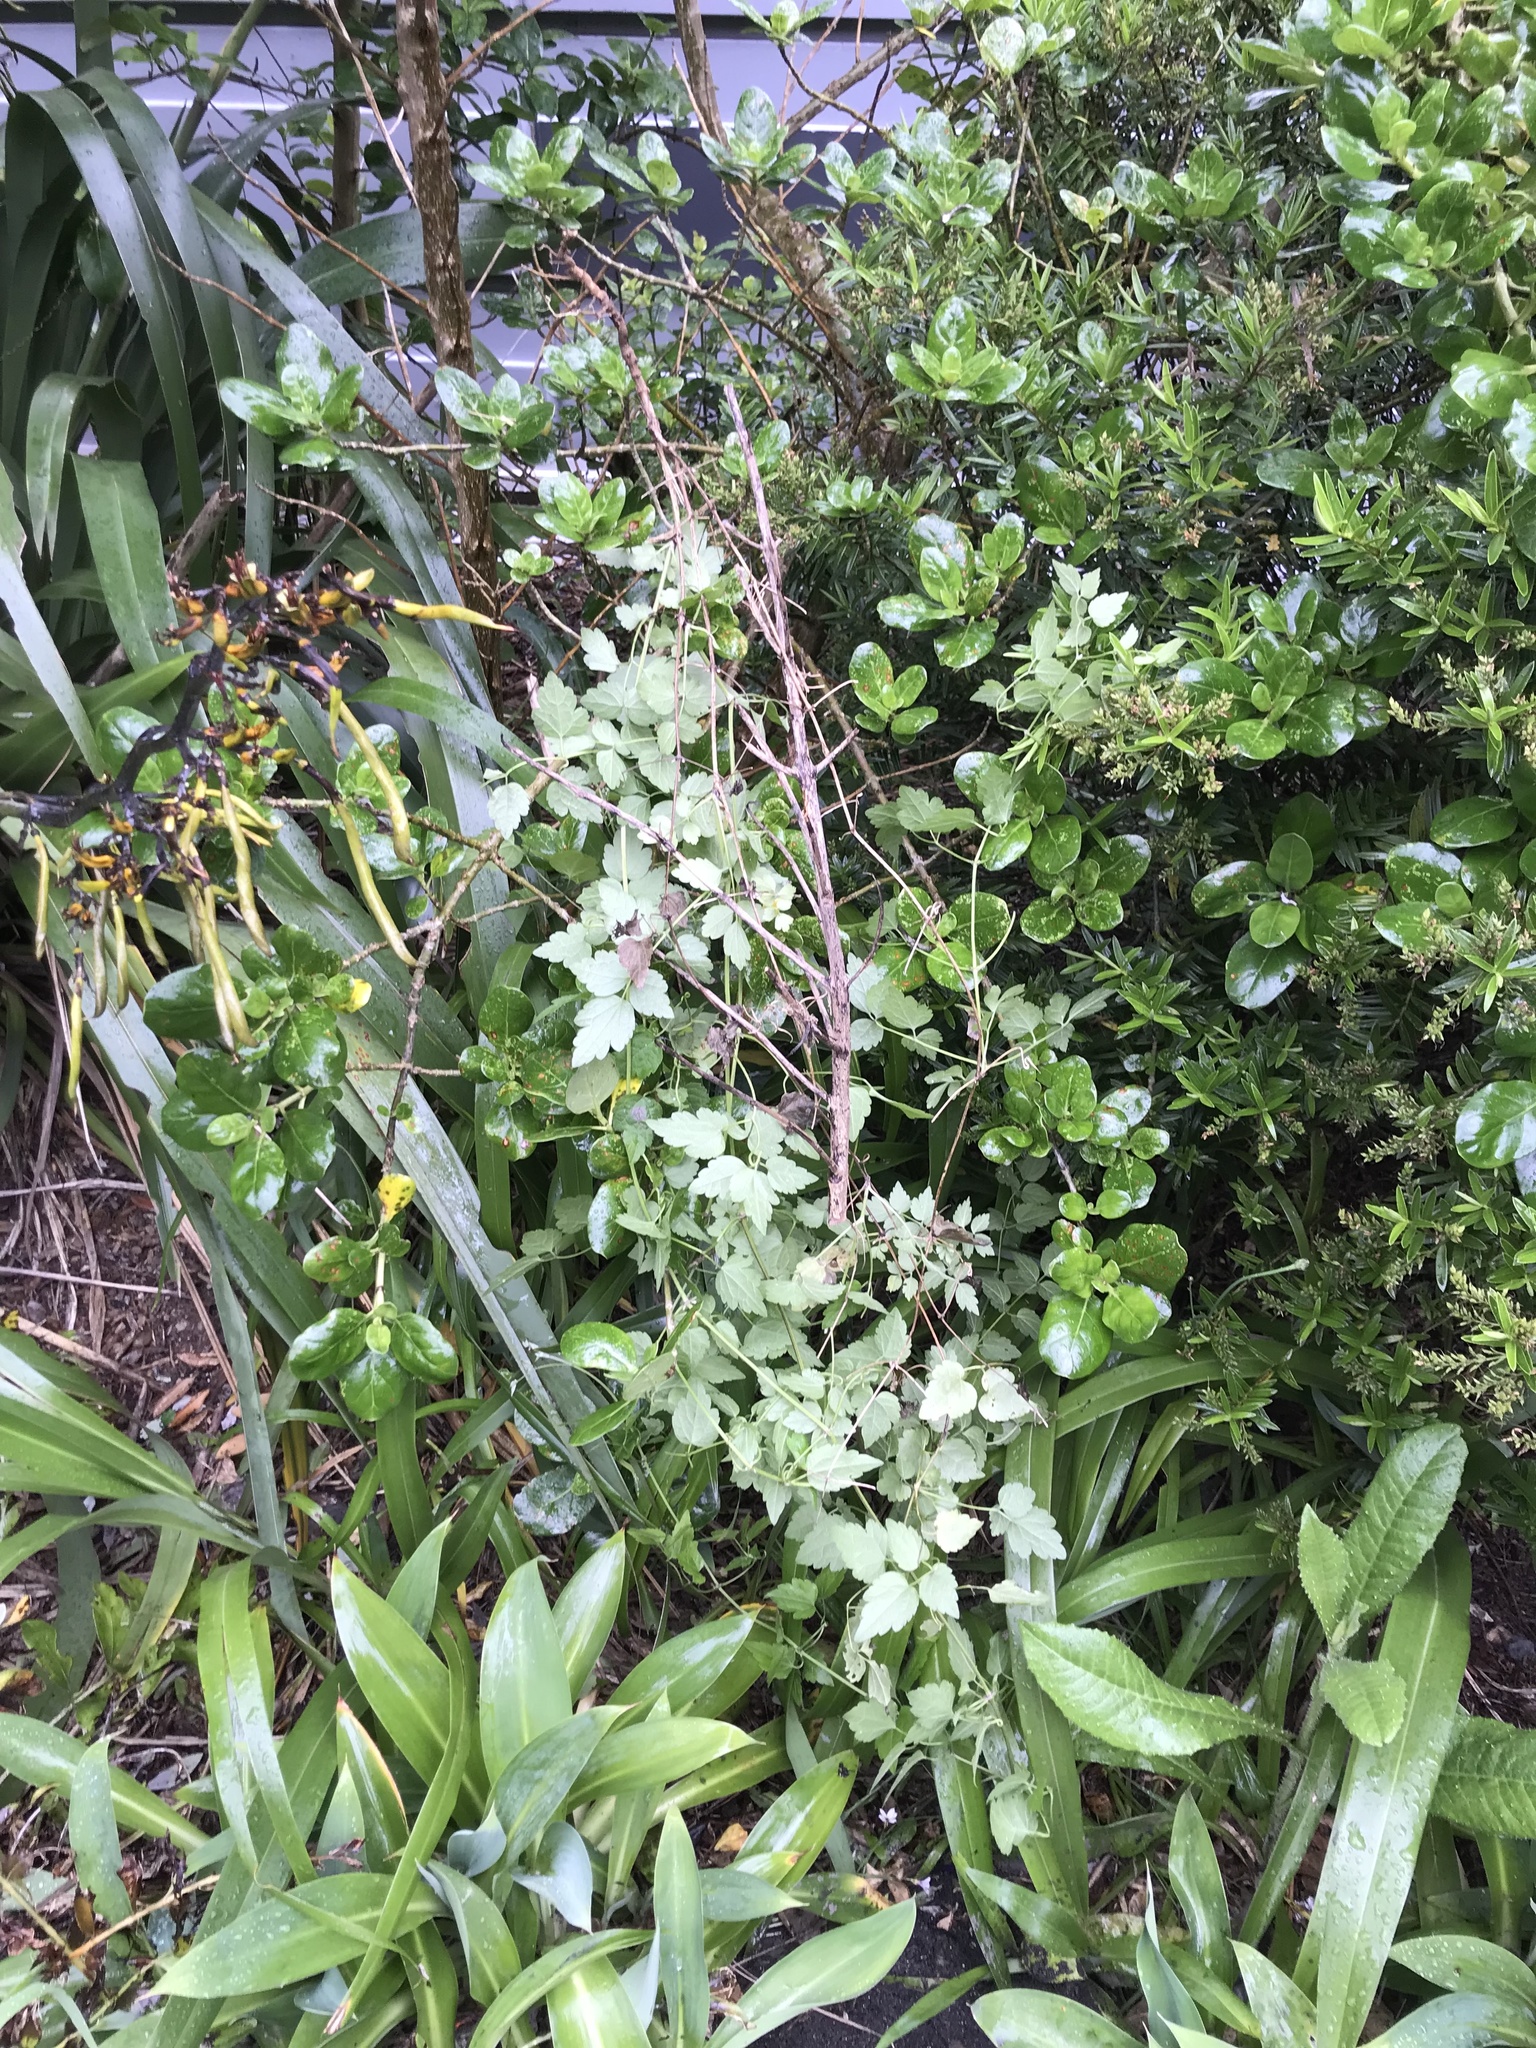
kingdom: Plantae
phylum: Tracheophyta
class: Magnoliopsida
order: Ranunculales
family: Ranunculaceae
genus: Clematis
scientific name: Clematis vitalba
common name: Evergreen clematis
